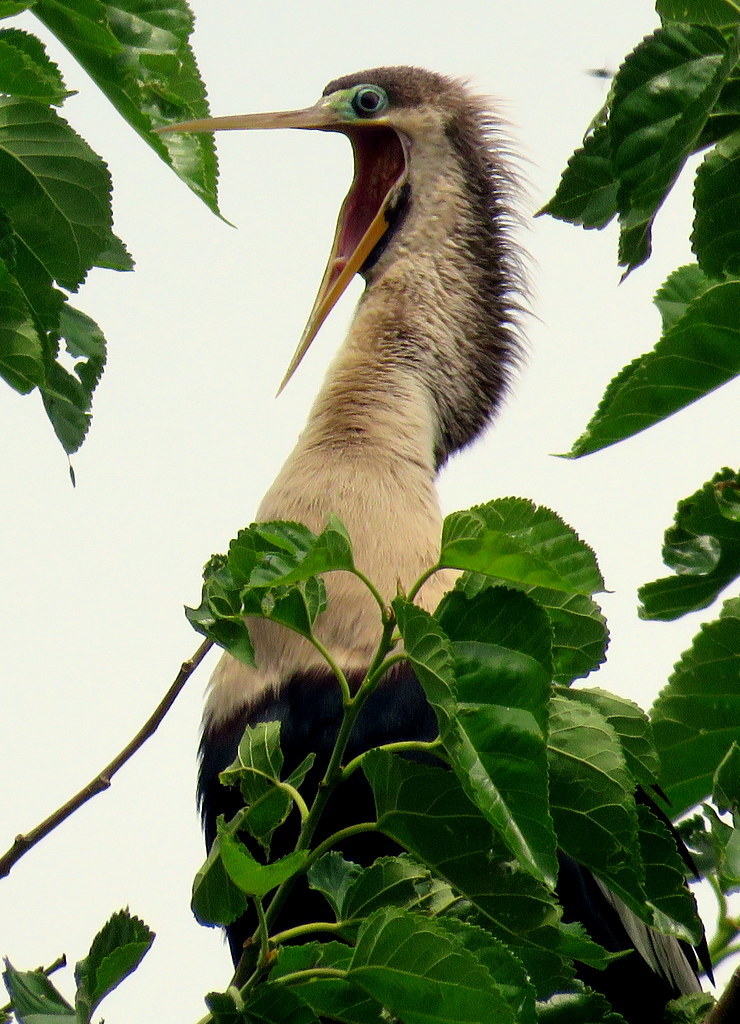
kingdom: Animalia
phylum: Chordata
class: Aves
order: Suliformes
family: Anhingidae
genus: Anhinga
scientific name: Anhinga anhinga
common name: Anhinga
